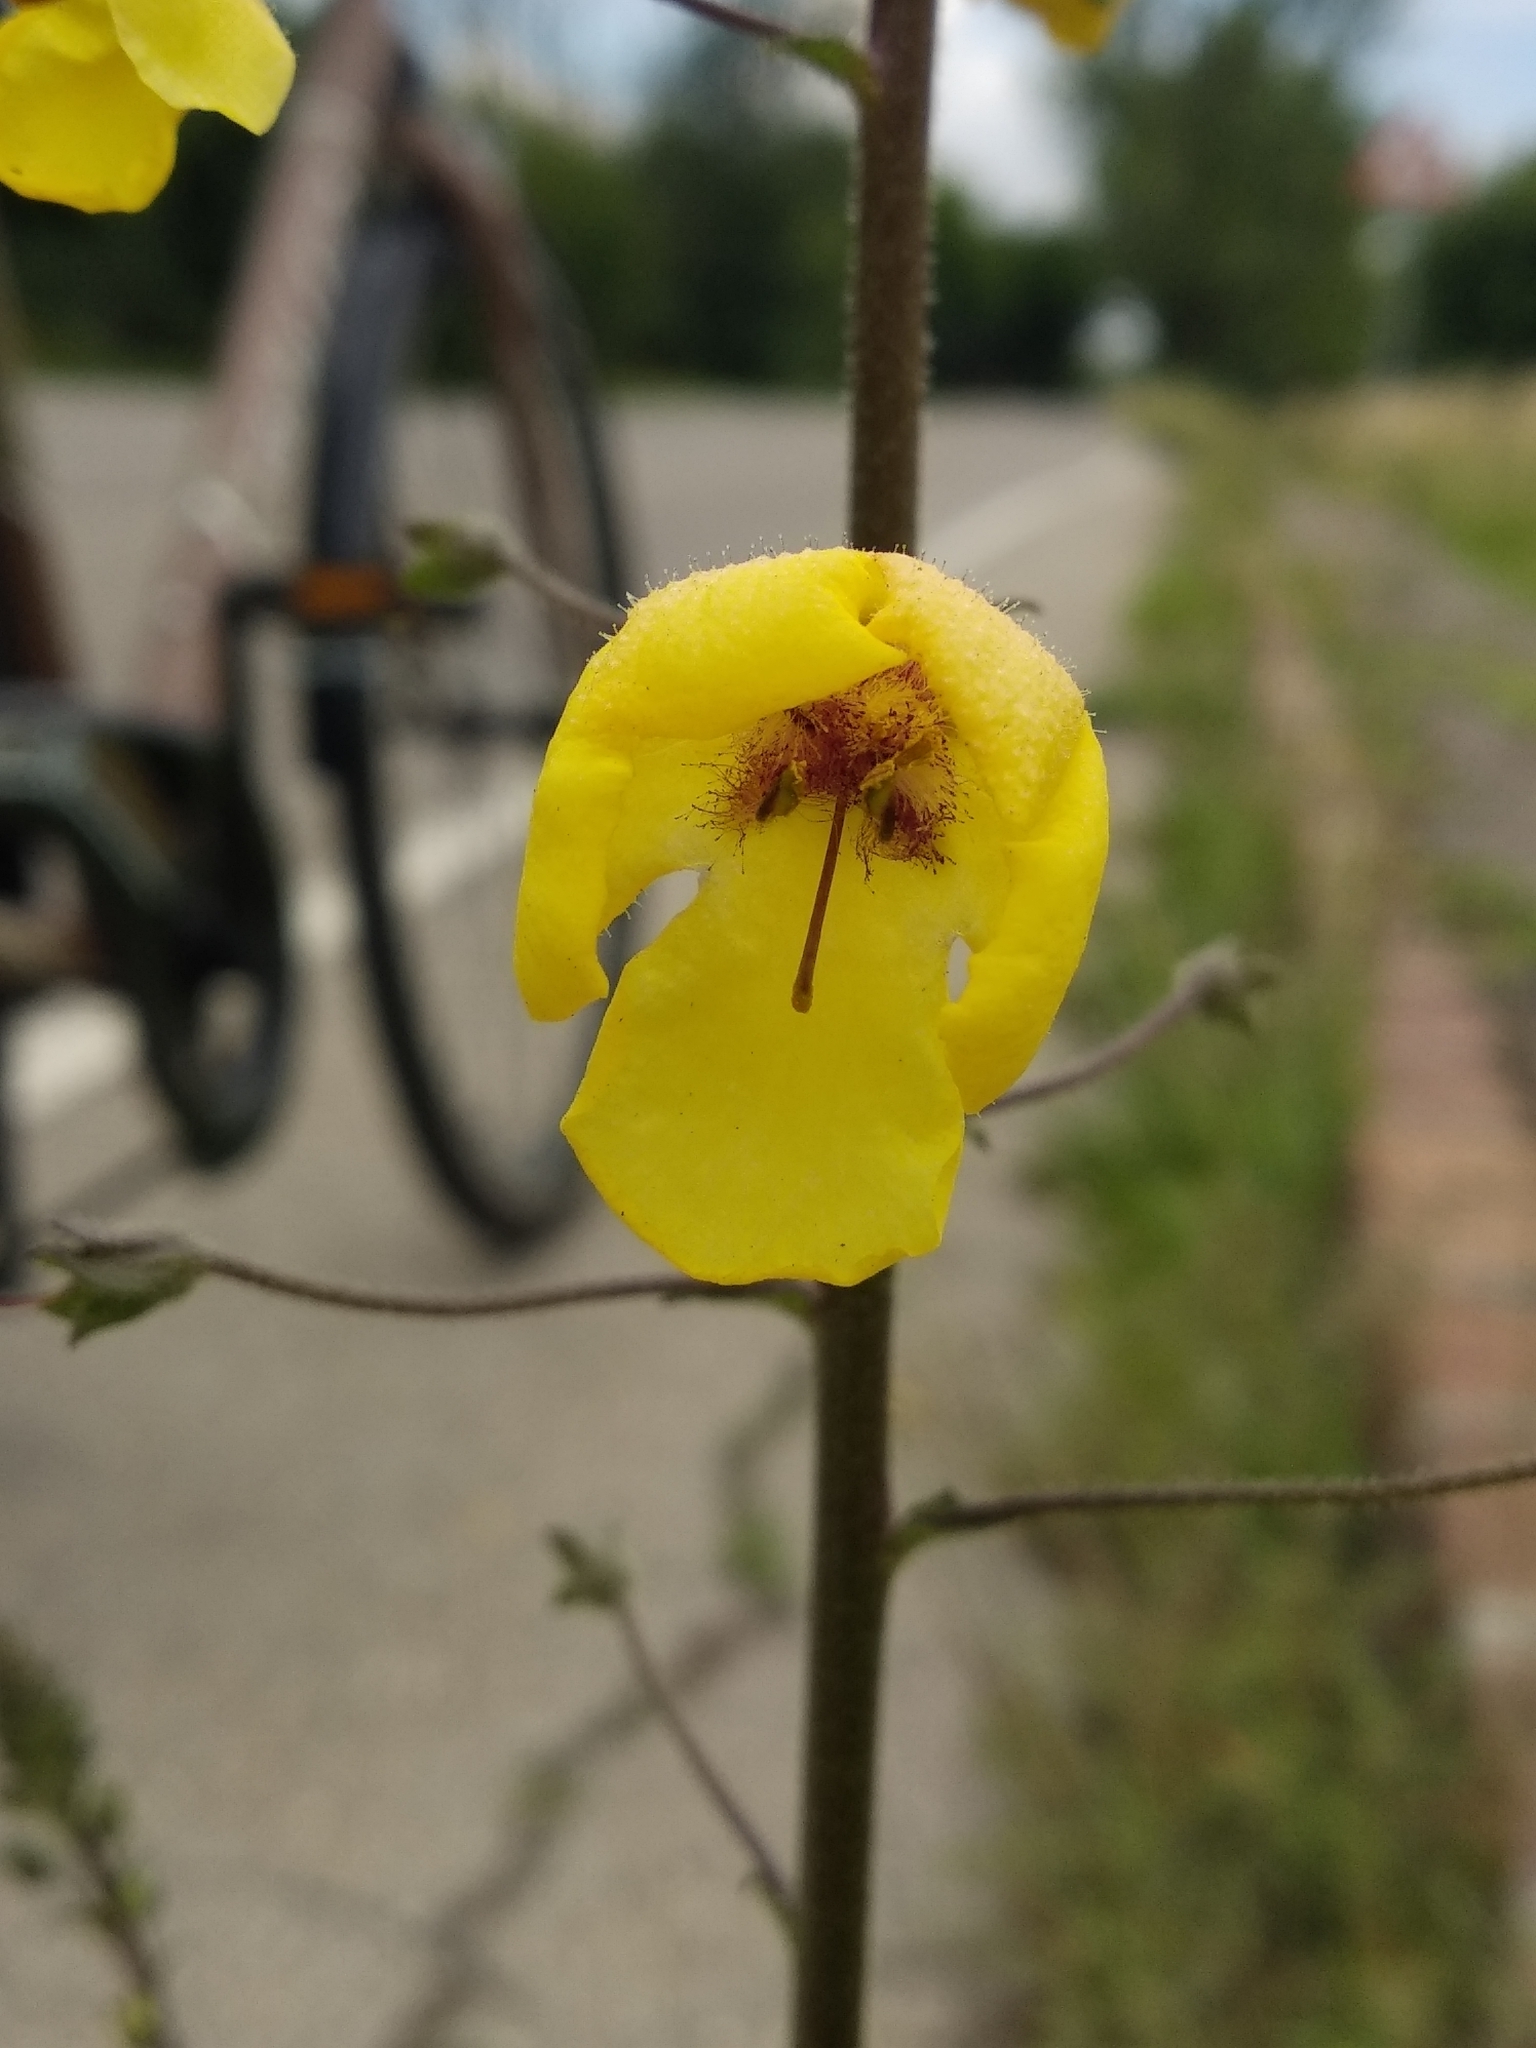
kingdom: Plantae
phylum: Tracheophyta
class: Magnoliopsida
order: Lamiales
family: Scrophulariaceae
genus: Verbascum
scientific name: Verbascum blattaria
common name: Moth mullein
